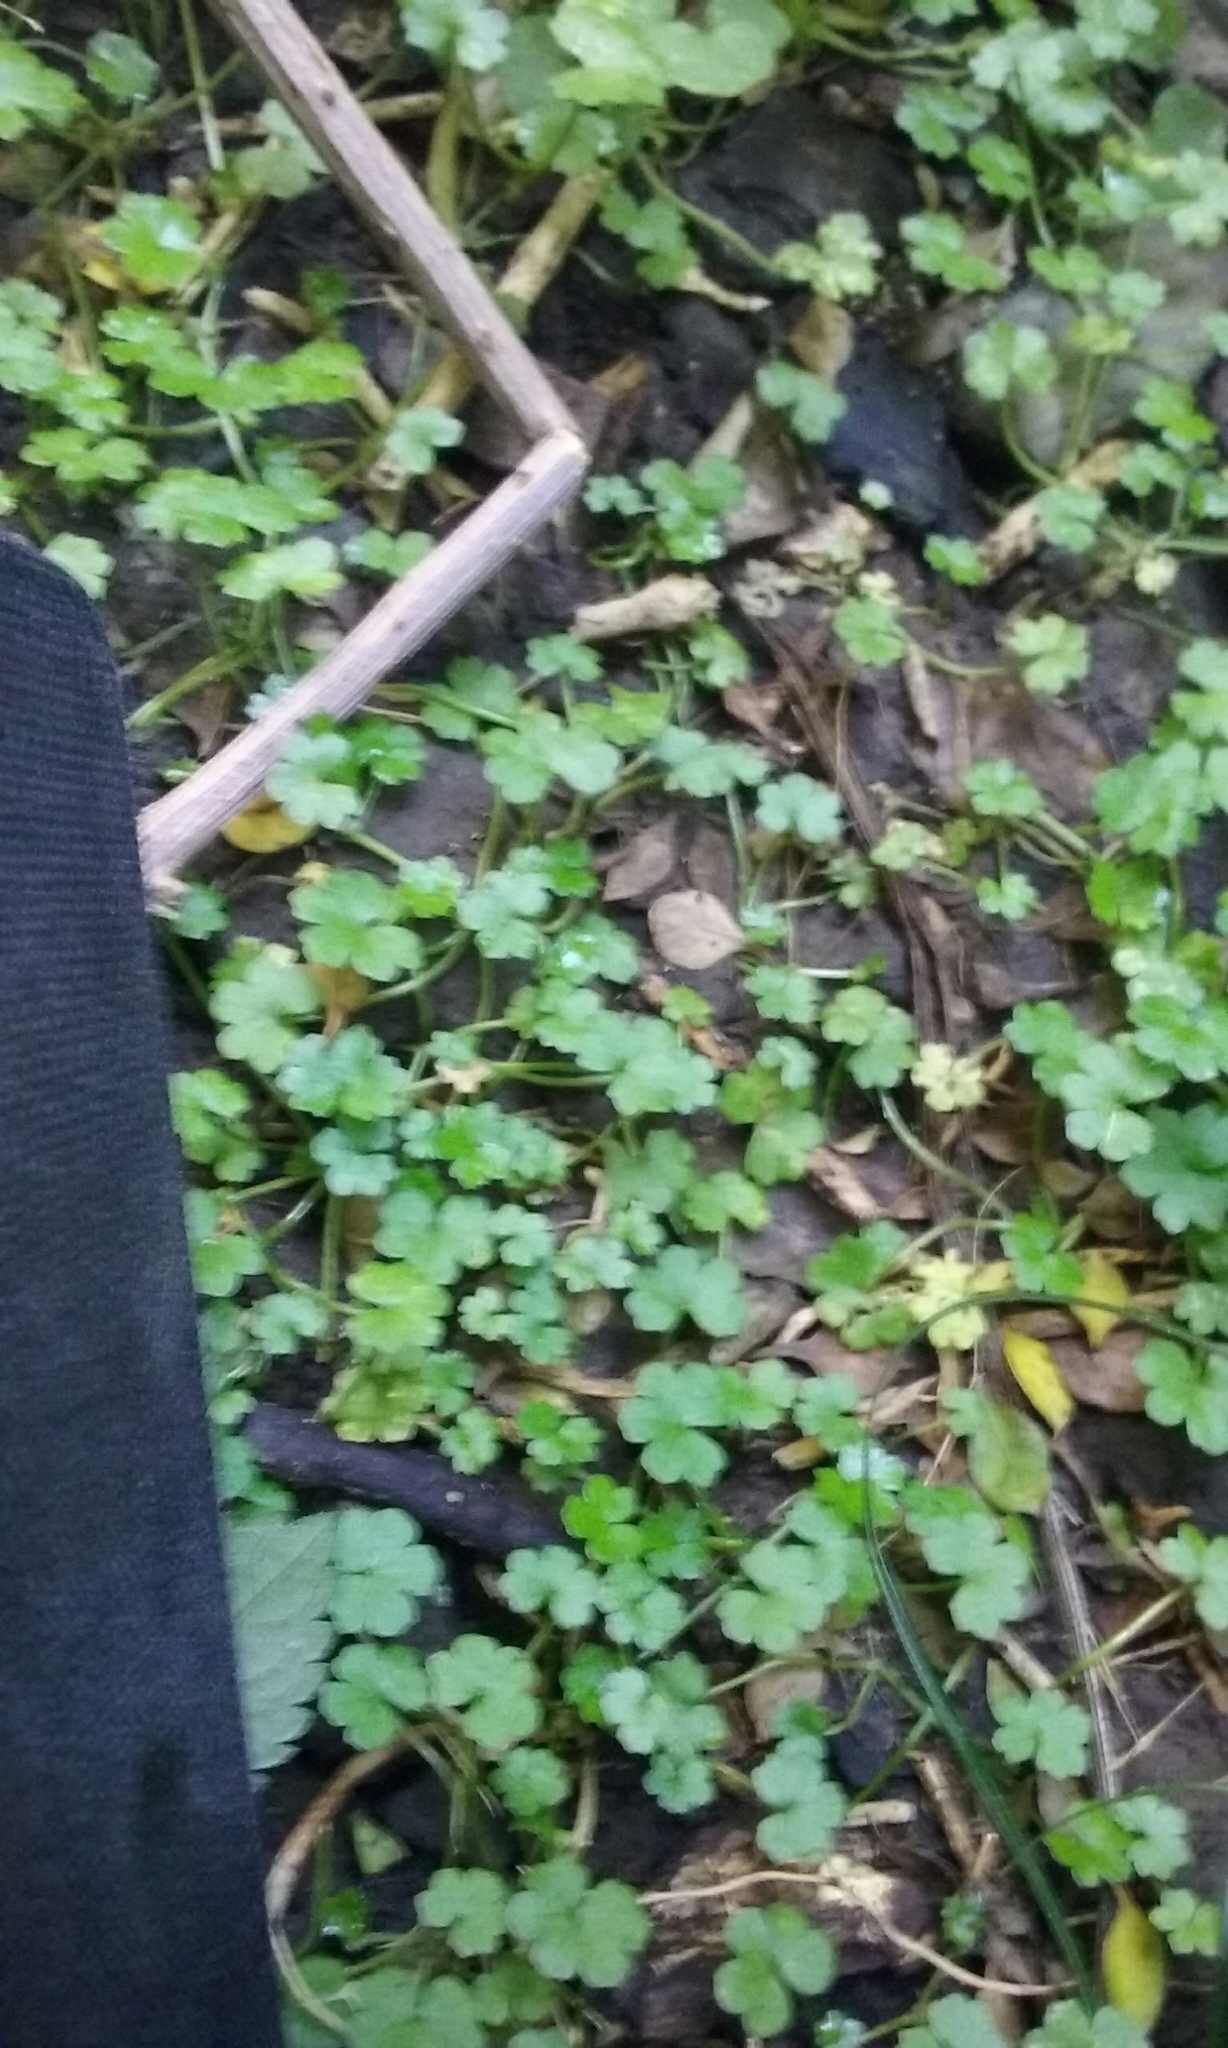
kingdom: Plantae
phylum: Tracheophyta
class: Magnoliopsida
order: Apiales
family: Araliaceae
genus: Hydrocotyle
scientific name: Hydrocotyle heteromeria
